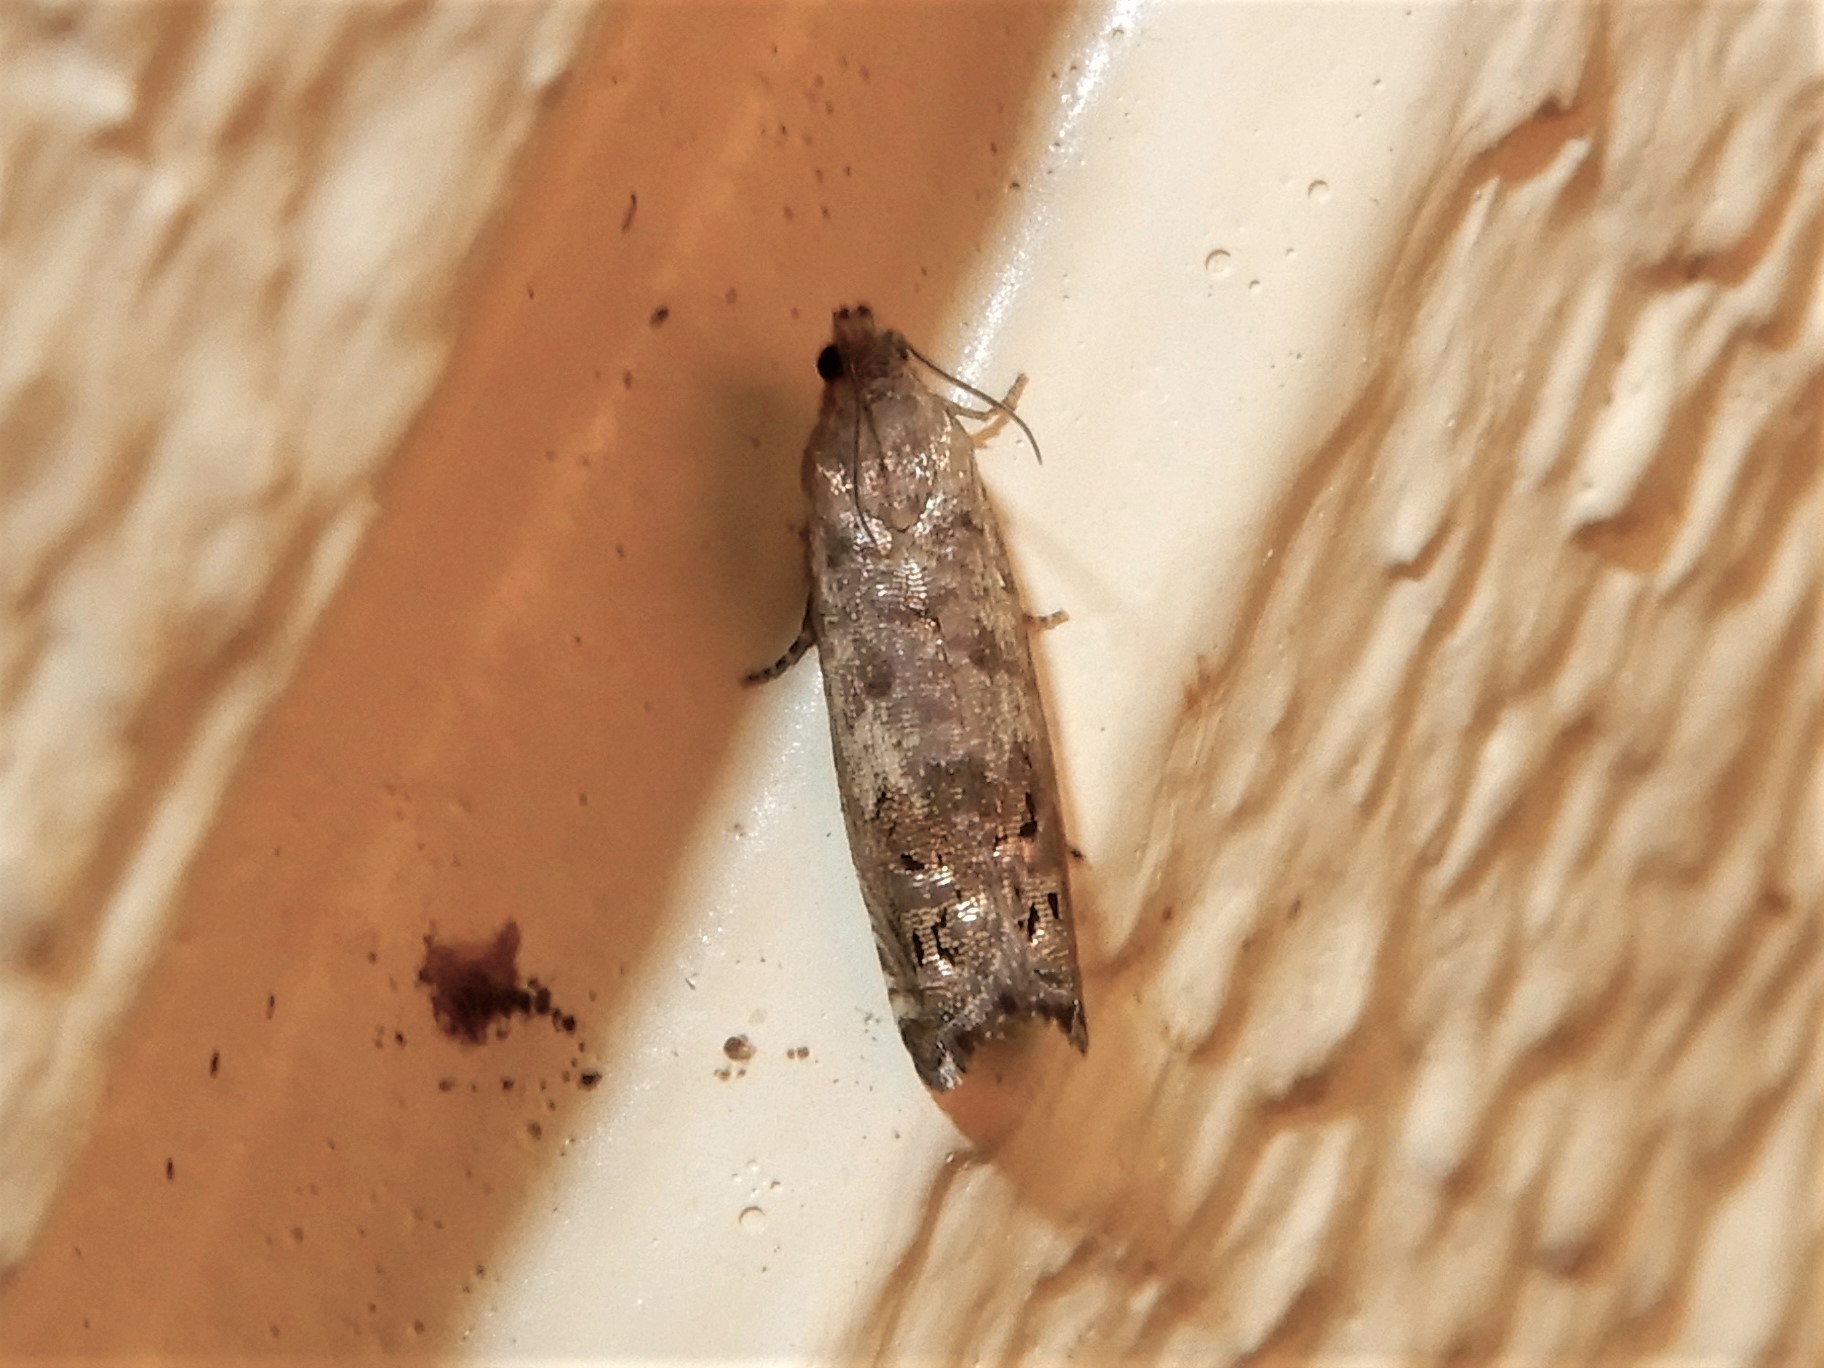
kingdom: Animalia
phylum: Arthropoda
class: Insecta
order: Lepidoptera
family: Tortricidae
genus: Cydia
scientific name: Cydia succedana
